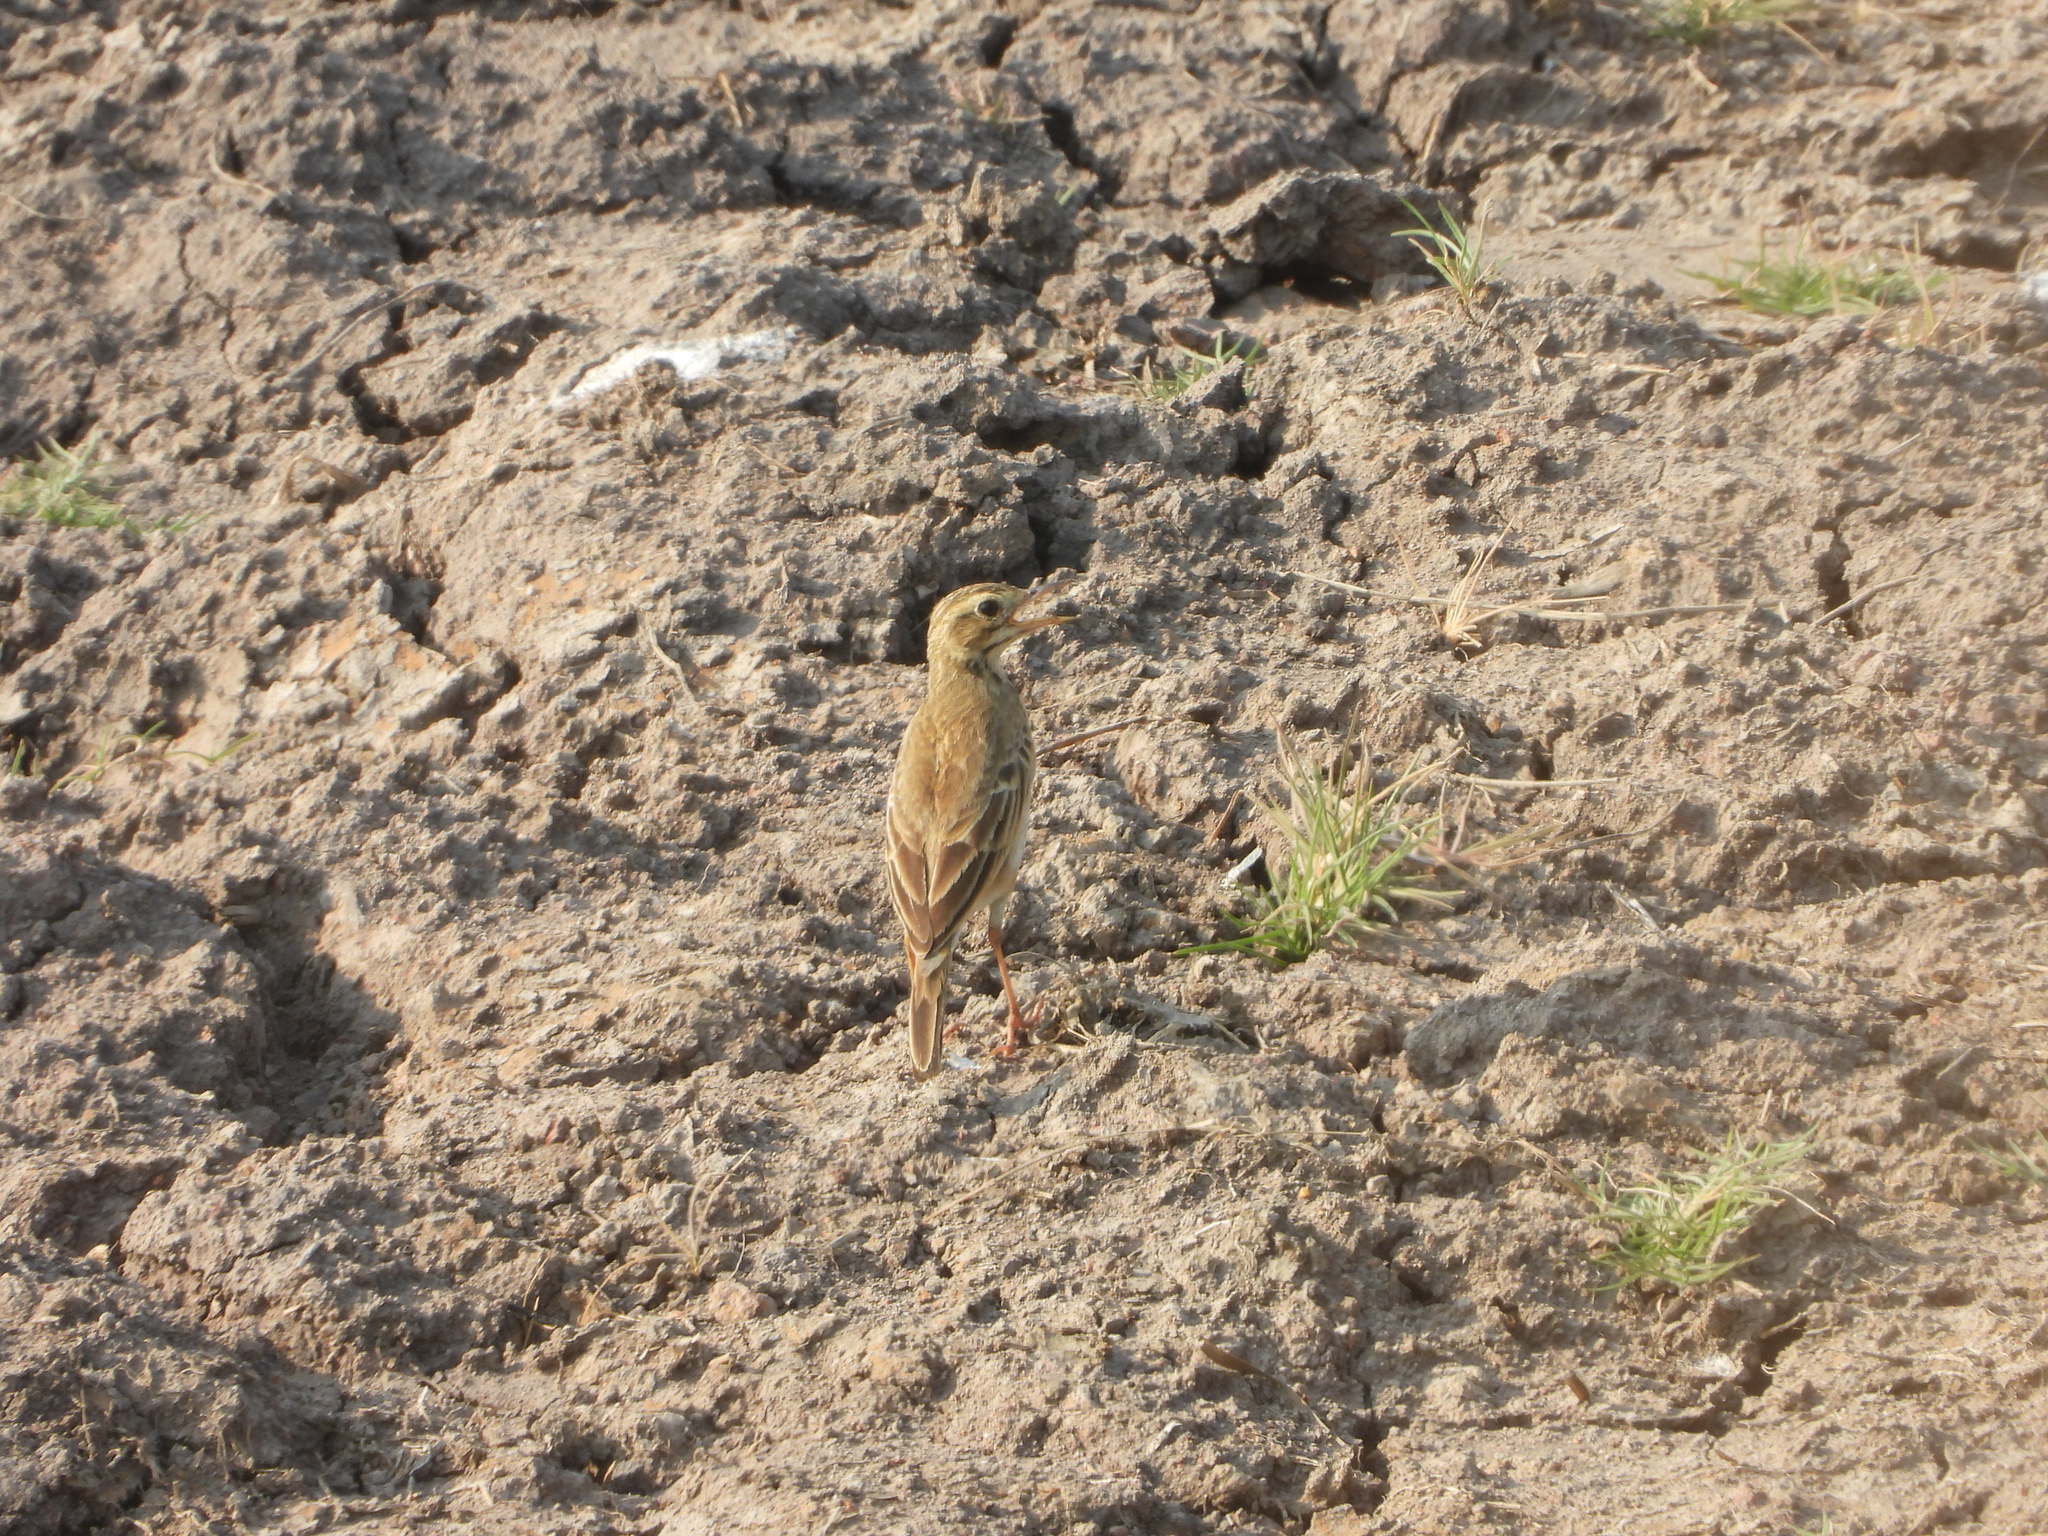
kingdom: Animalia
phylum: Chordata
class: Aves
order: Passeriformes
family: Motacillidae
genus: Anthus
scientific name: Anthus rufulus
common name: Paddyfield pipit
